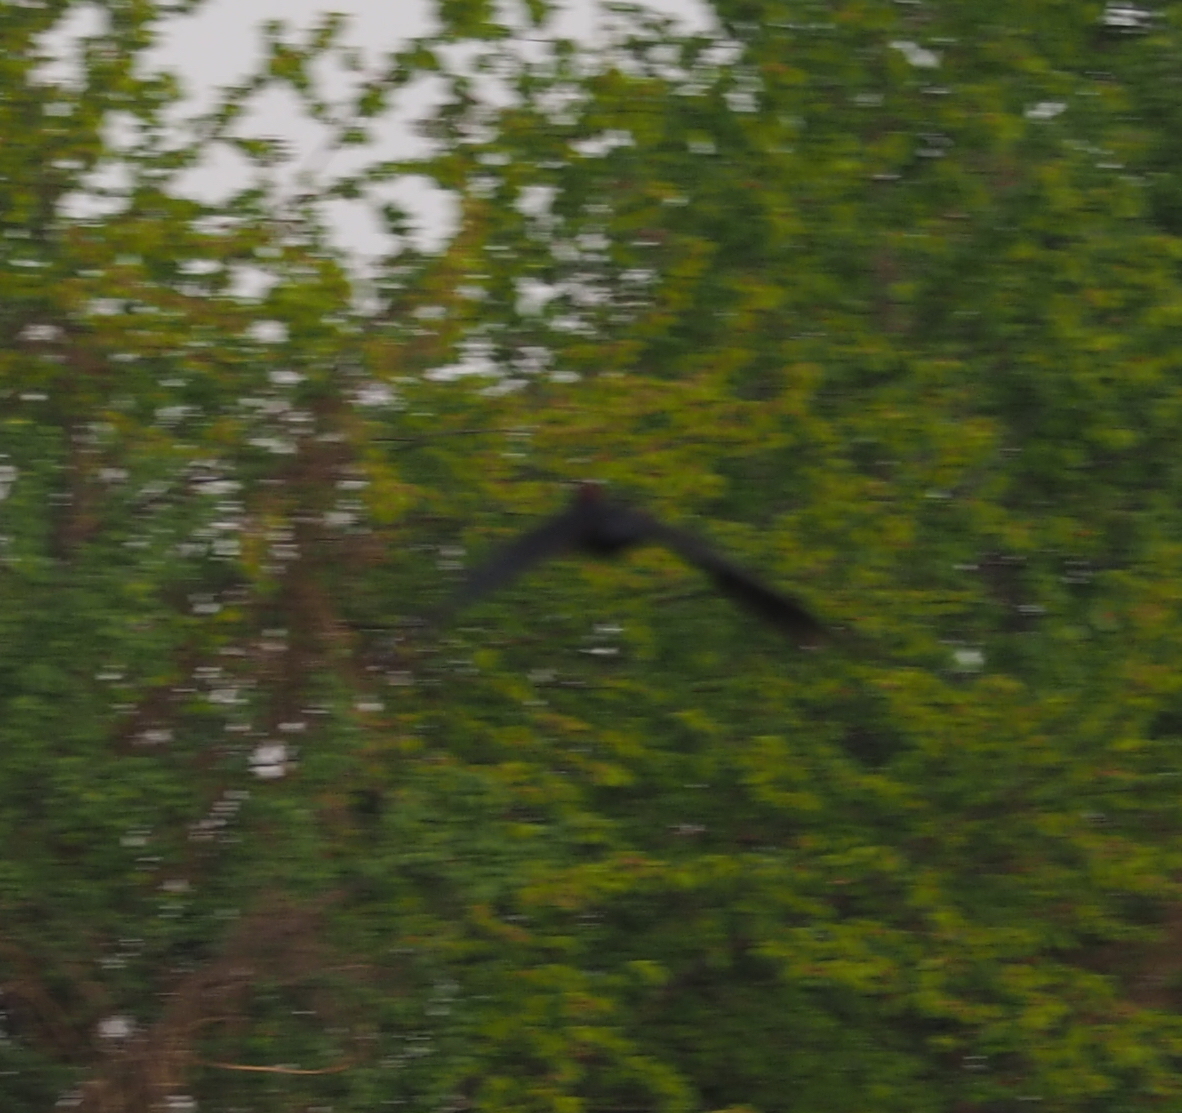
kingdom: Animalia
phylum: Chordata
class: Aves
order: Piciformes
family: Picidae
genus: Dryocopus
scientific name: Dryocopus martius
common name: Black woodpecker
